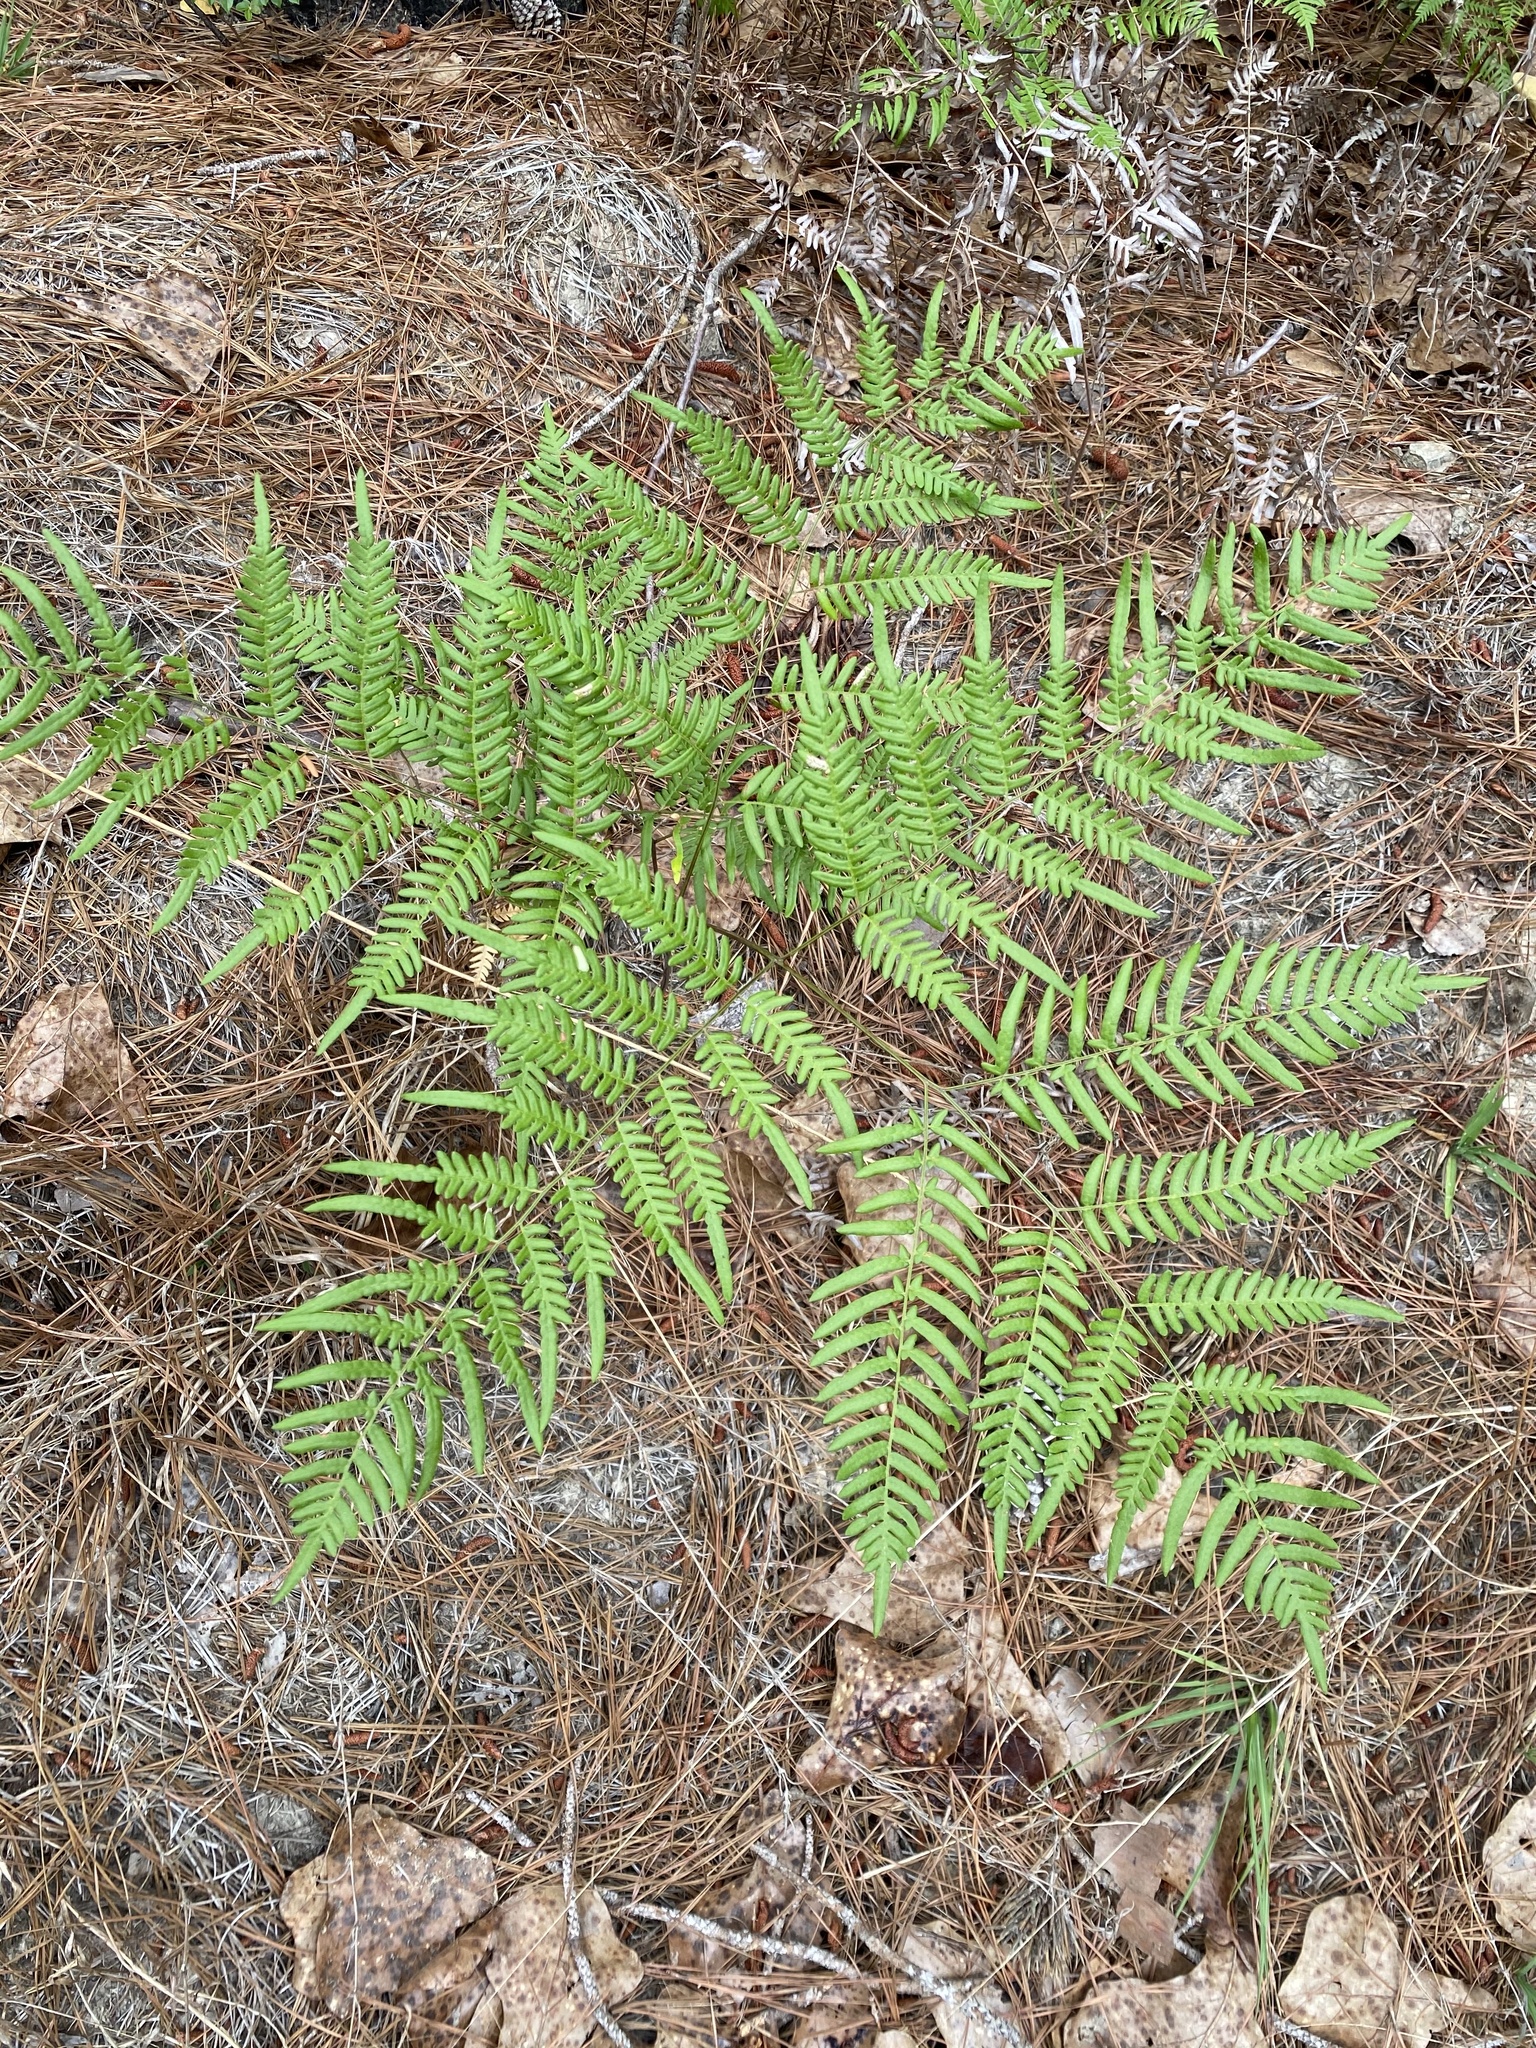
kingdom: Plantae
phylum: Tracheophyta
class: Polypodiopsida
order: Polypodiales
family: Dennstaedtiaceae
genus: Pteridium
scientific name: Pteridium
